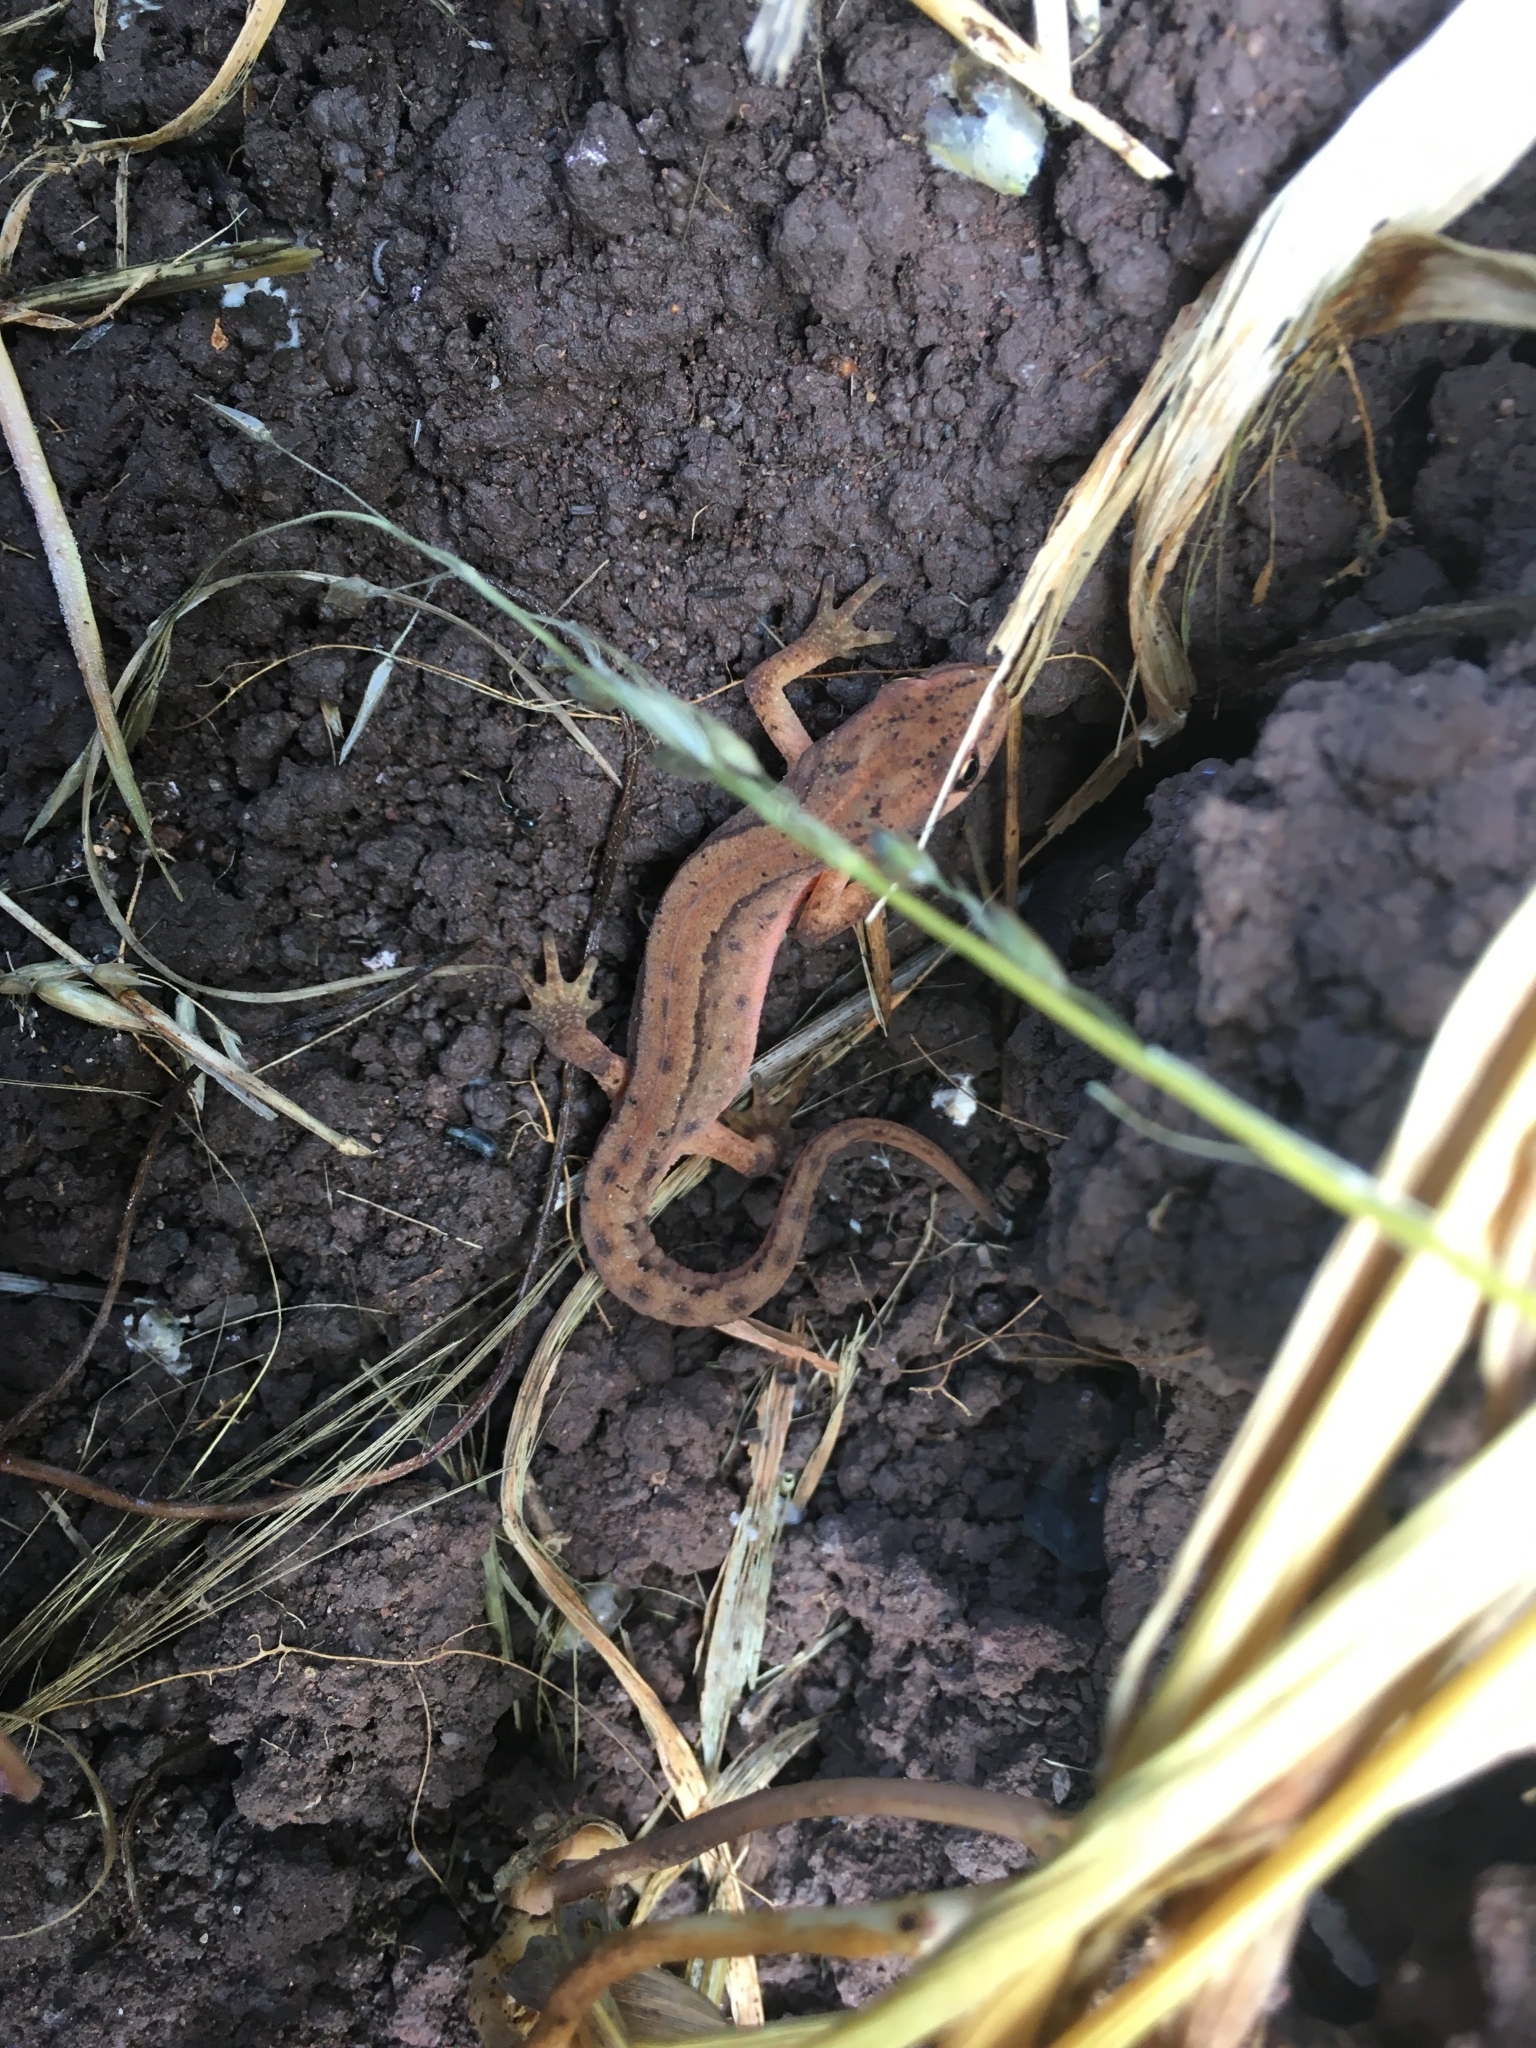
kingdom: Animalia
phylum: Chordata
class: Amphibia
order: Caudata
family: Salamandridae
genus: Lissotriton
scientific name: Lissotriton vulgaris
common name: Smooth newt
